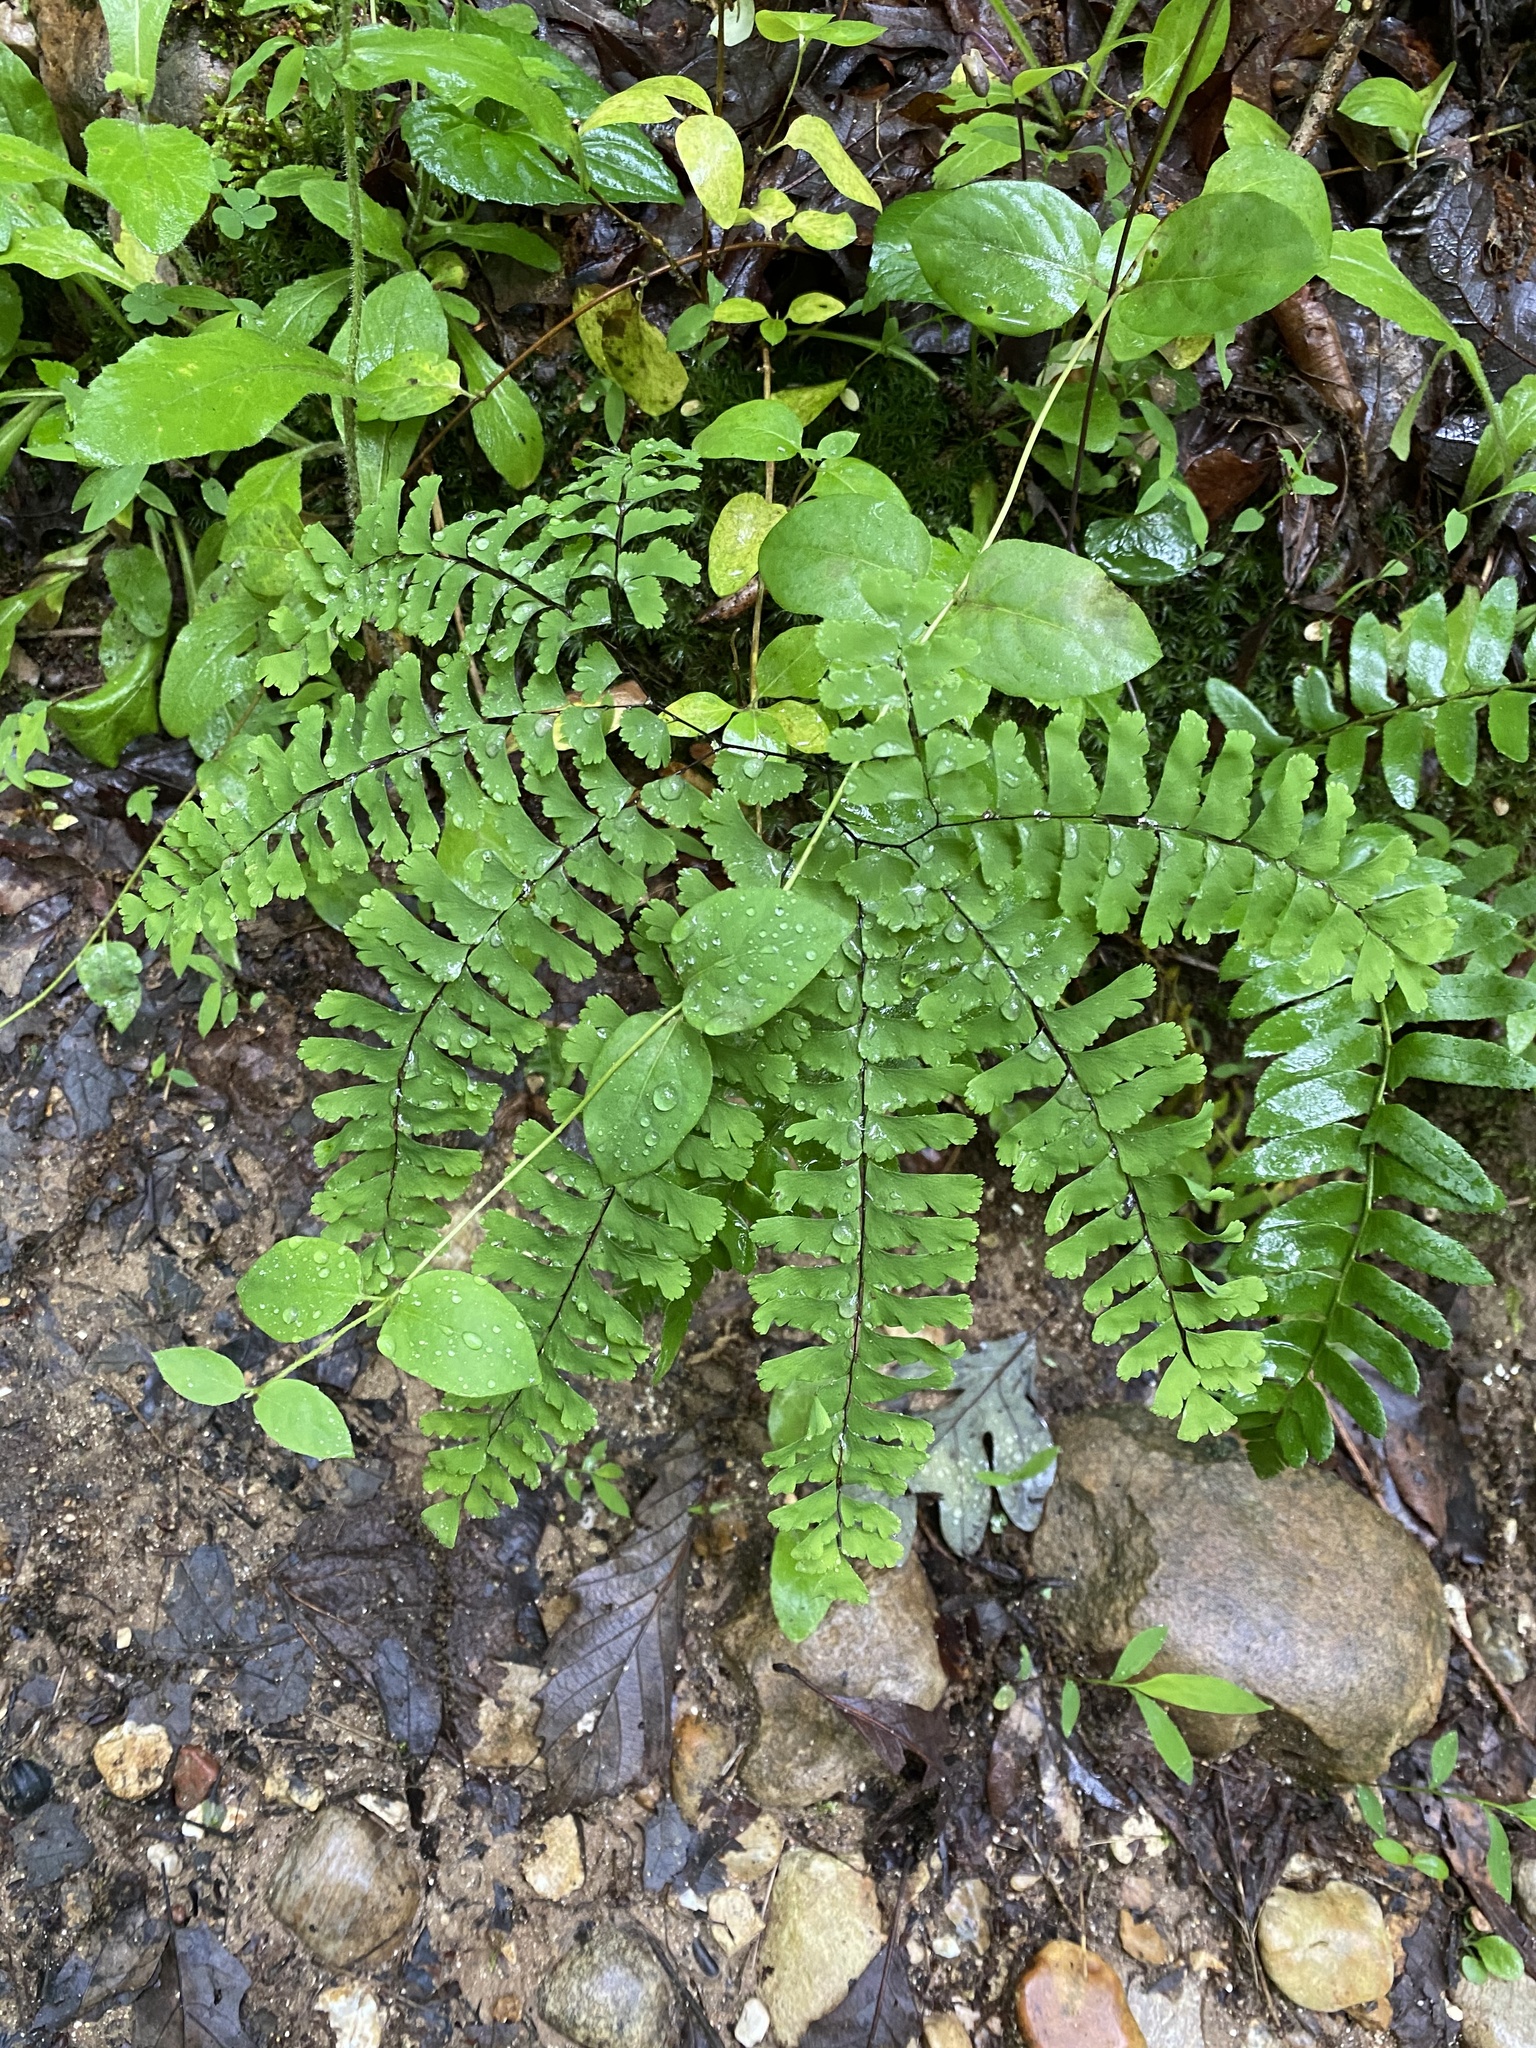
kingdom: Plantae
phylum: Tracheophyta
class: Polypodiopsida
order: Polypodiales
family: Pteridaceae
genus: Adiantum
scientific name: Adiantum pedatum
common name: Five-finger fern
